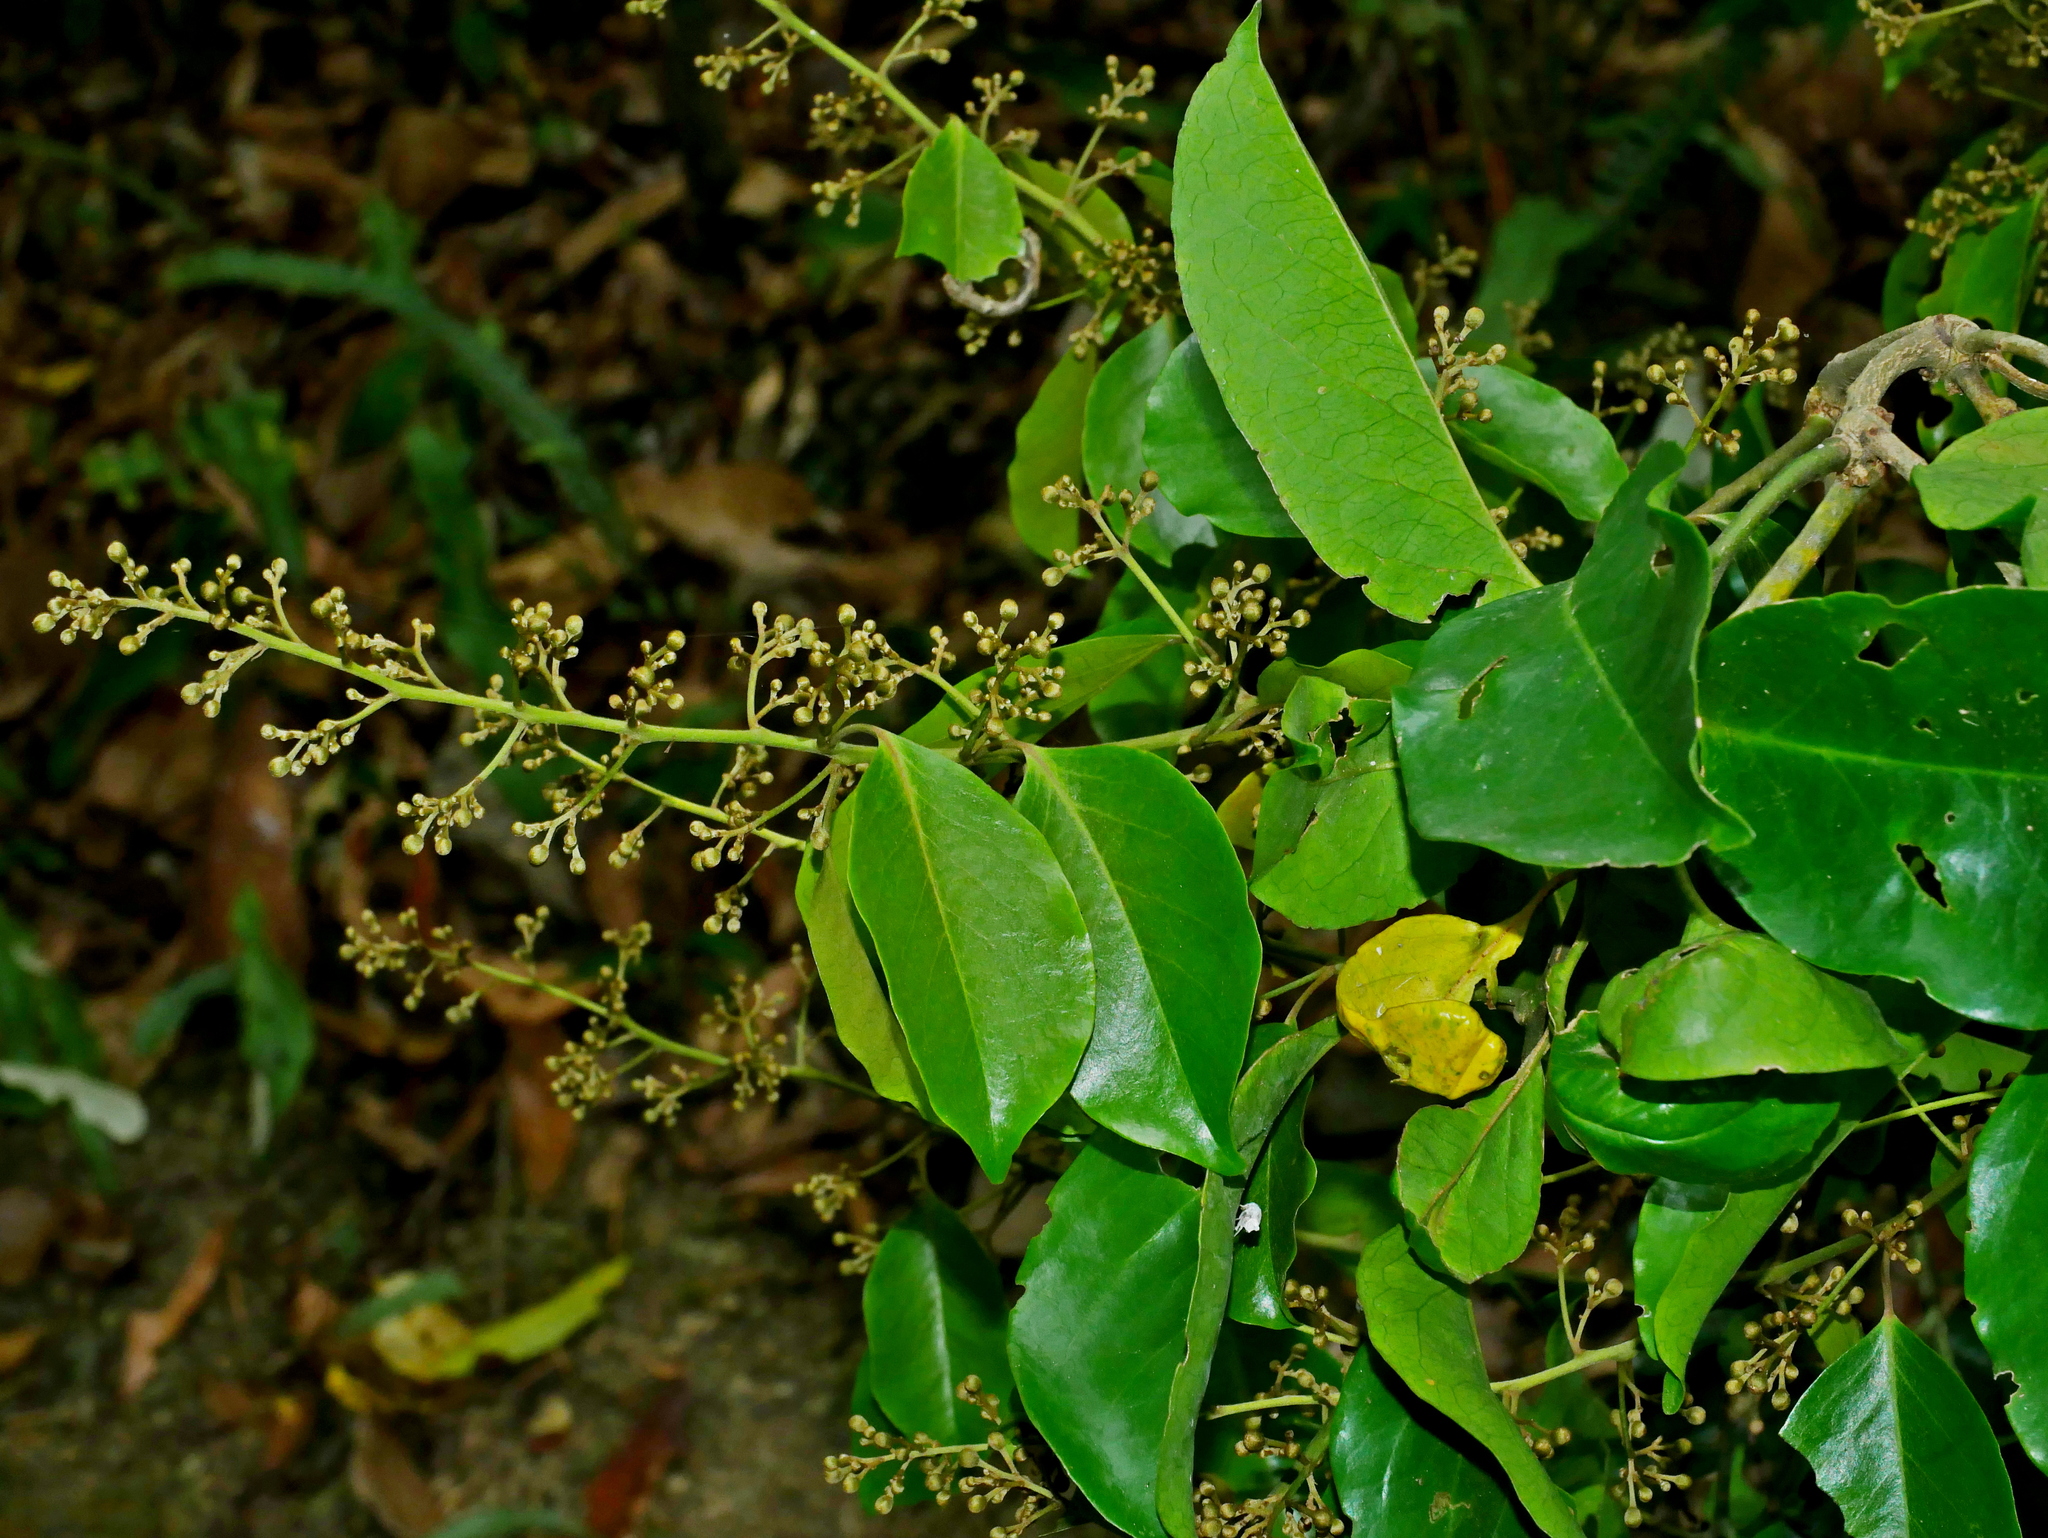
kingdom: Plantae
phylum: Tracheophyta
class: Magnoliopsida
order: Solanales
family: Convolvulaceae
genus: Erycibe
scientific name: Erycibe henryi
